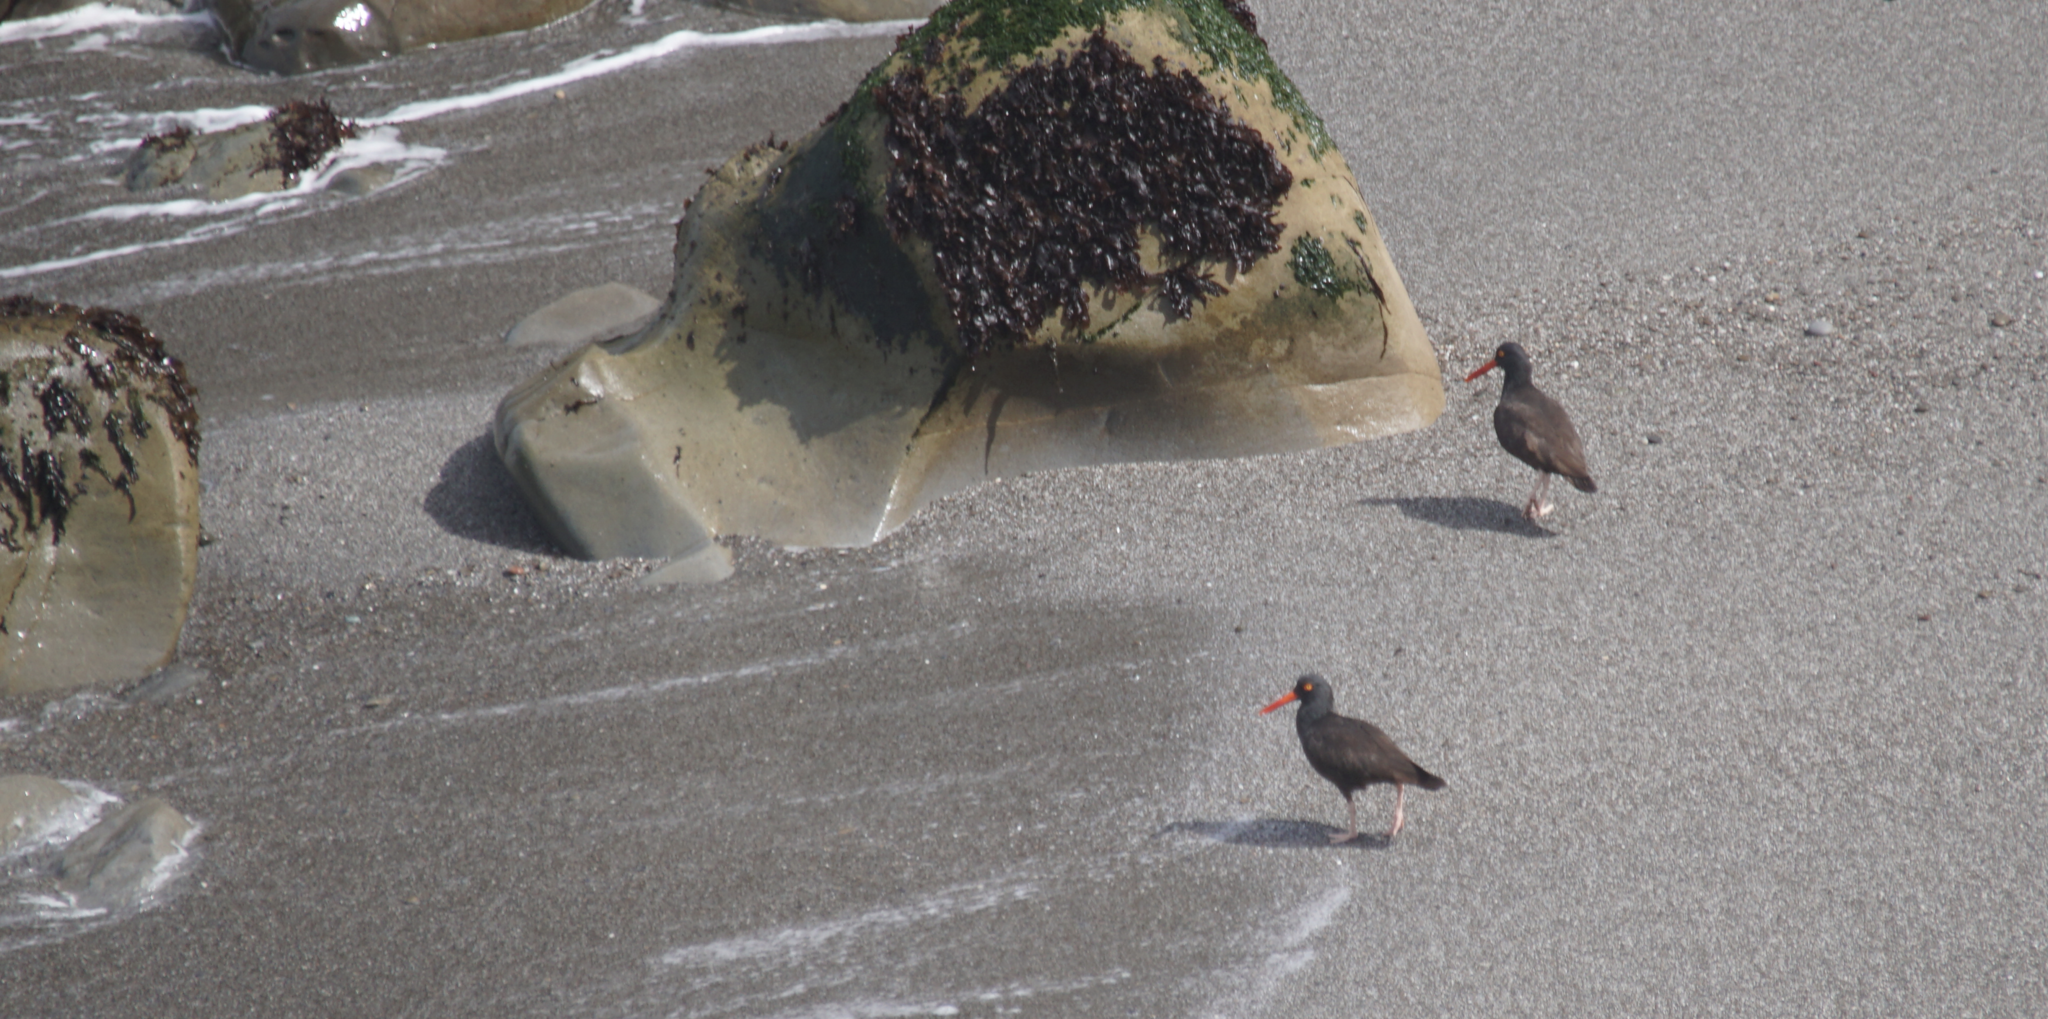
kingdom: Animalia
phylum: Chordata
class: Aves
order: Charadriiformes
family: Haematopodidae
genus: Haematopus
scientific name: Haematopus bachmani
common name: Black oystercatcher
